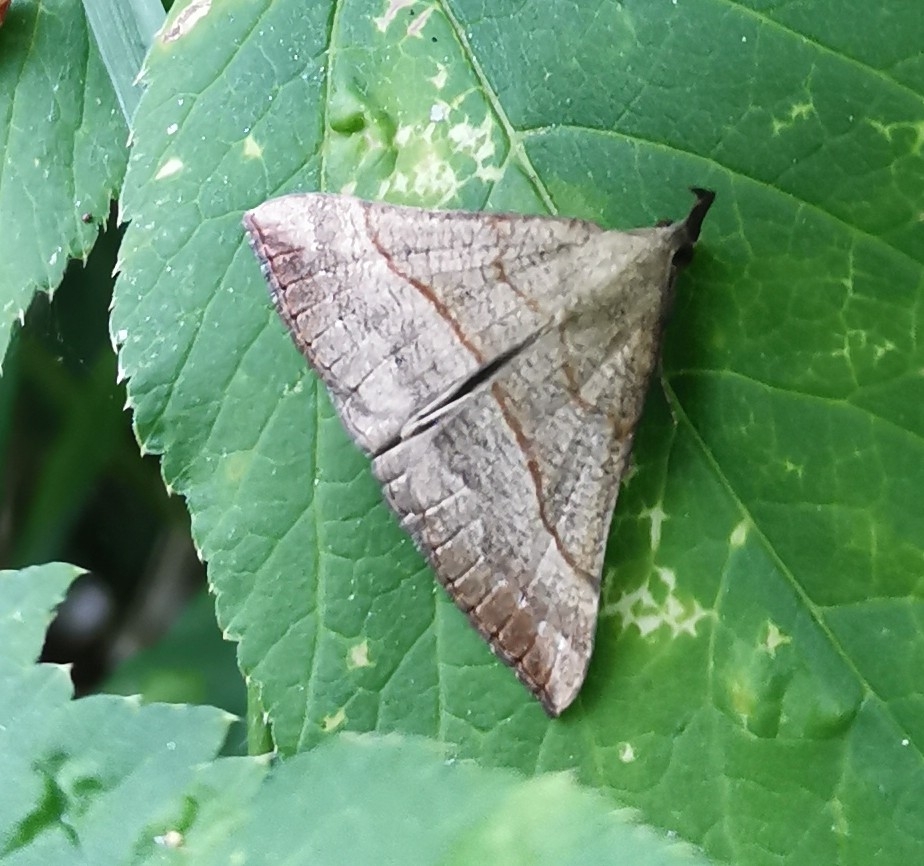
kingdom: Animalia
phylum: Arthropoda
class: Insecta
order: Lepidoptera
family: Erebidae
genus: Hypena
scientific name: Hypena proboscidalis
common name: Snout
